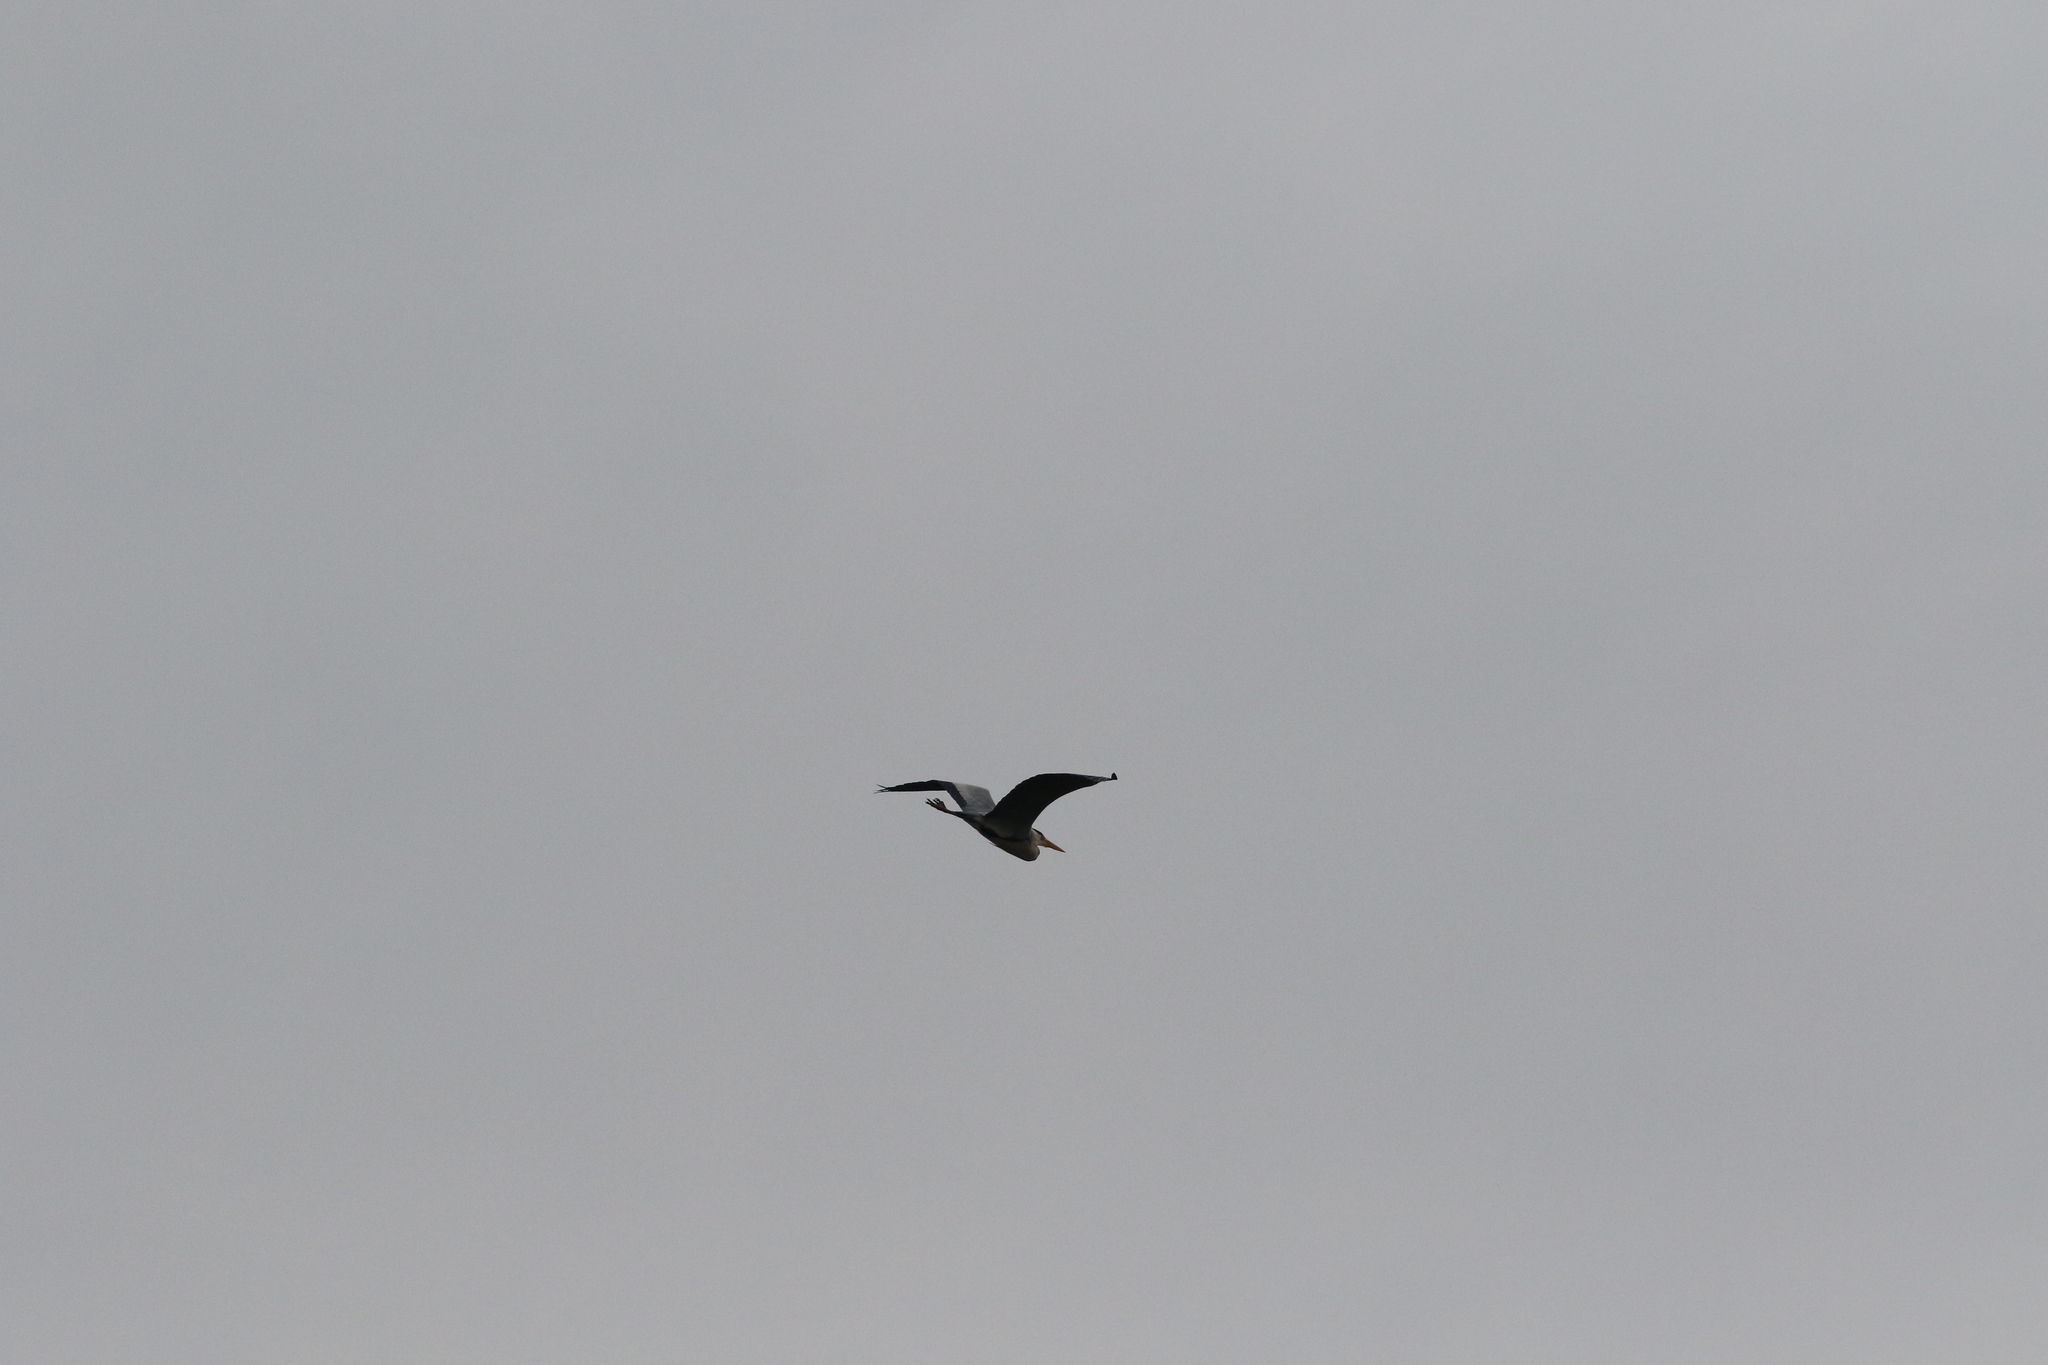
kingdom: Animalia
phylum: Chordata
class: Aves
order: Pelecaniformes
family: Ardeidae
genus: Ardea
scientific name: Ardea cinerea
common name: Grey heron
